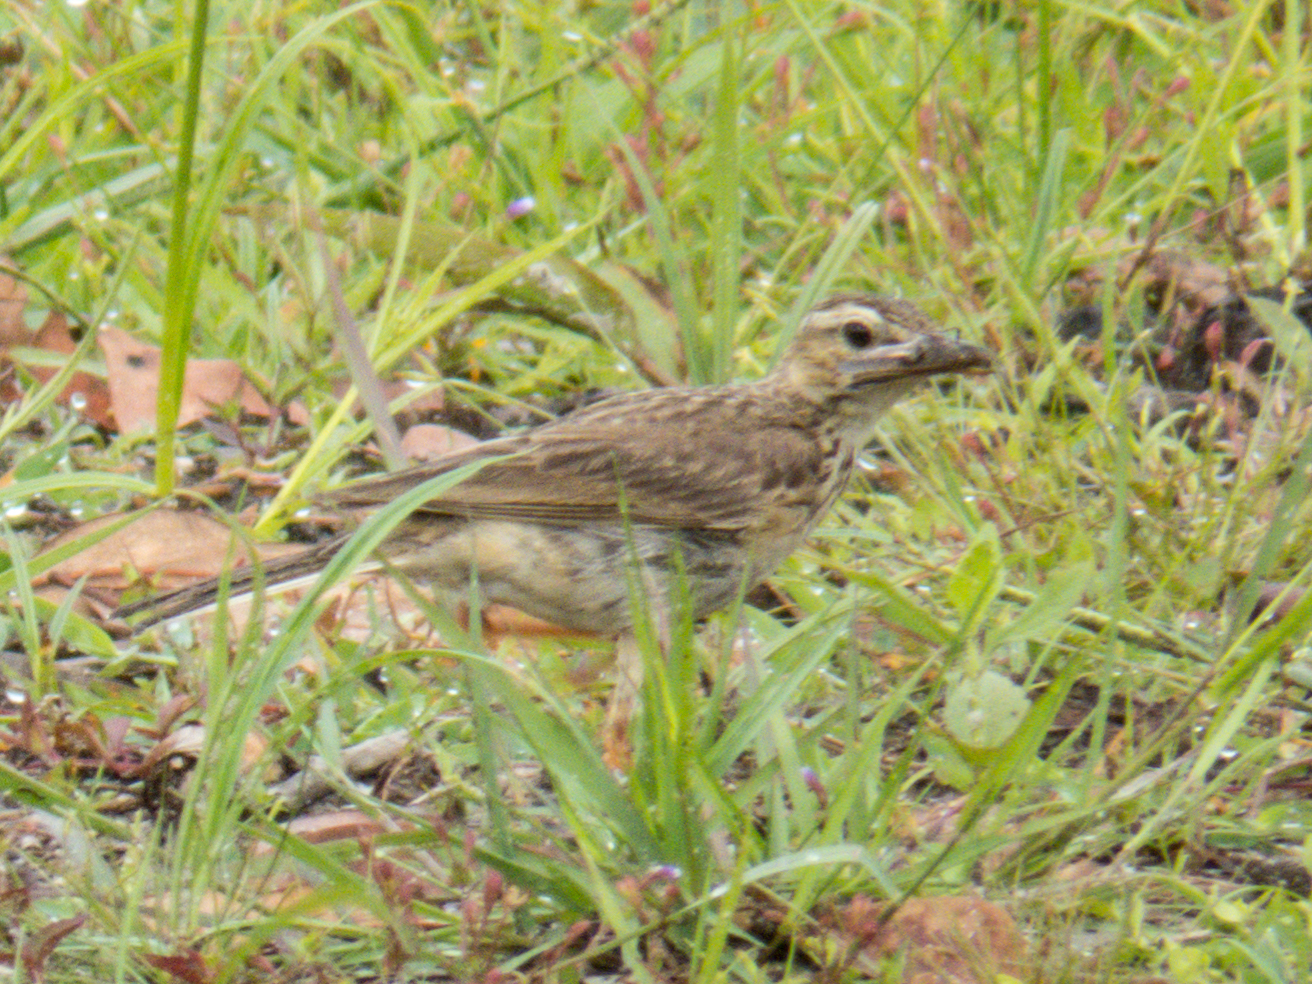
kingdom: Animalia
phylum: Chordata
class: Aves
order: Passeriformes
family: Motacillidae
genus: Anthus
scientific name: Anthus rufulus
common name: Paddyfield pipit
